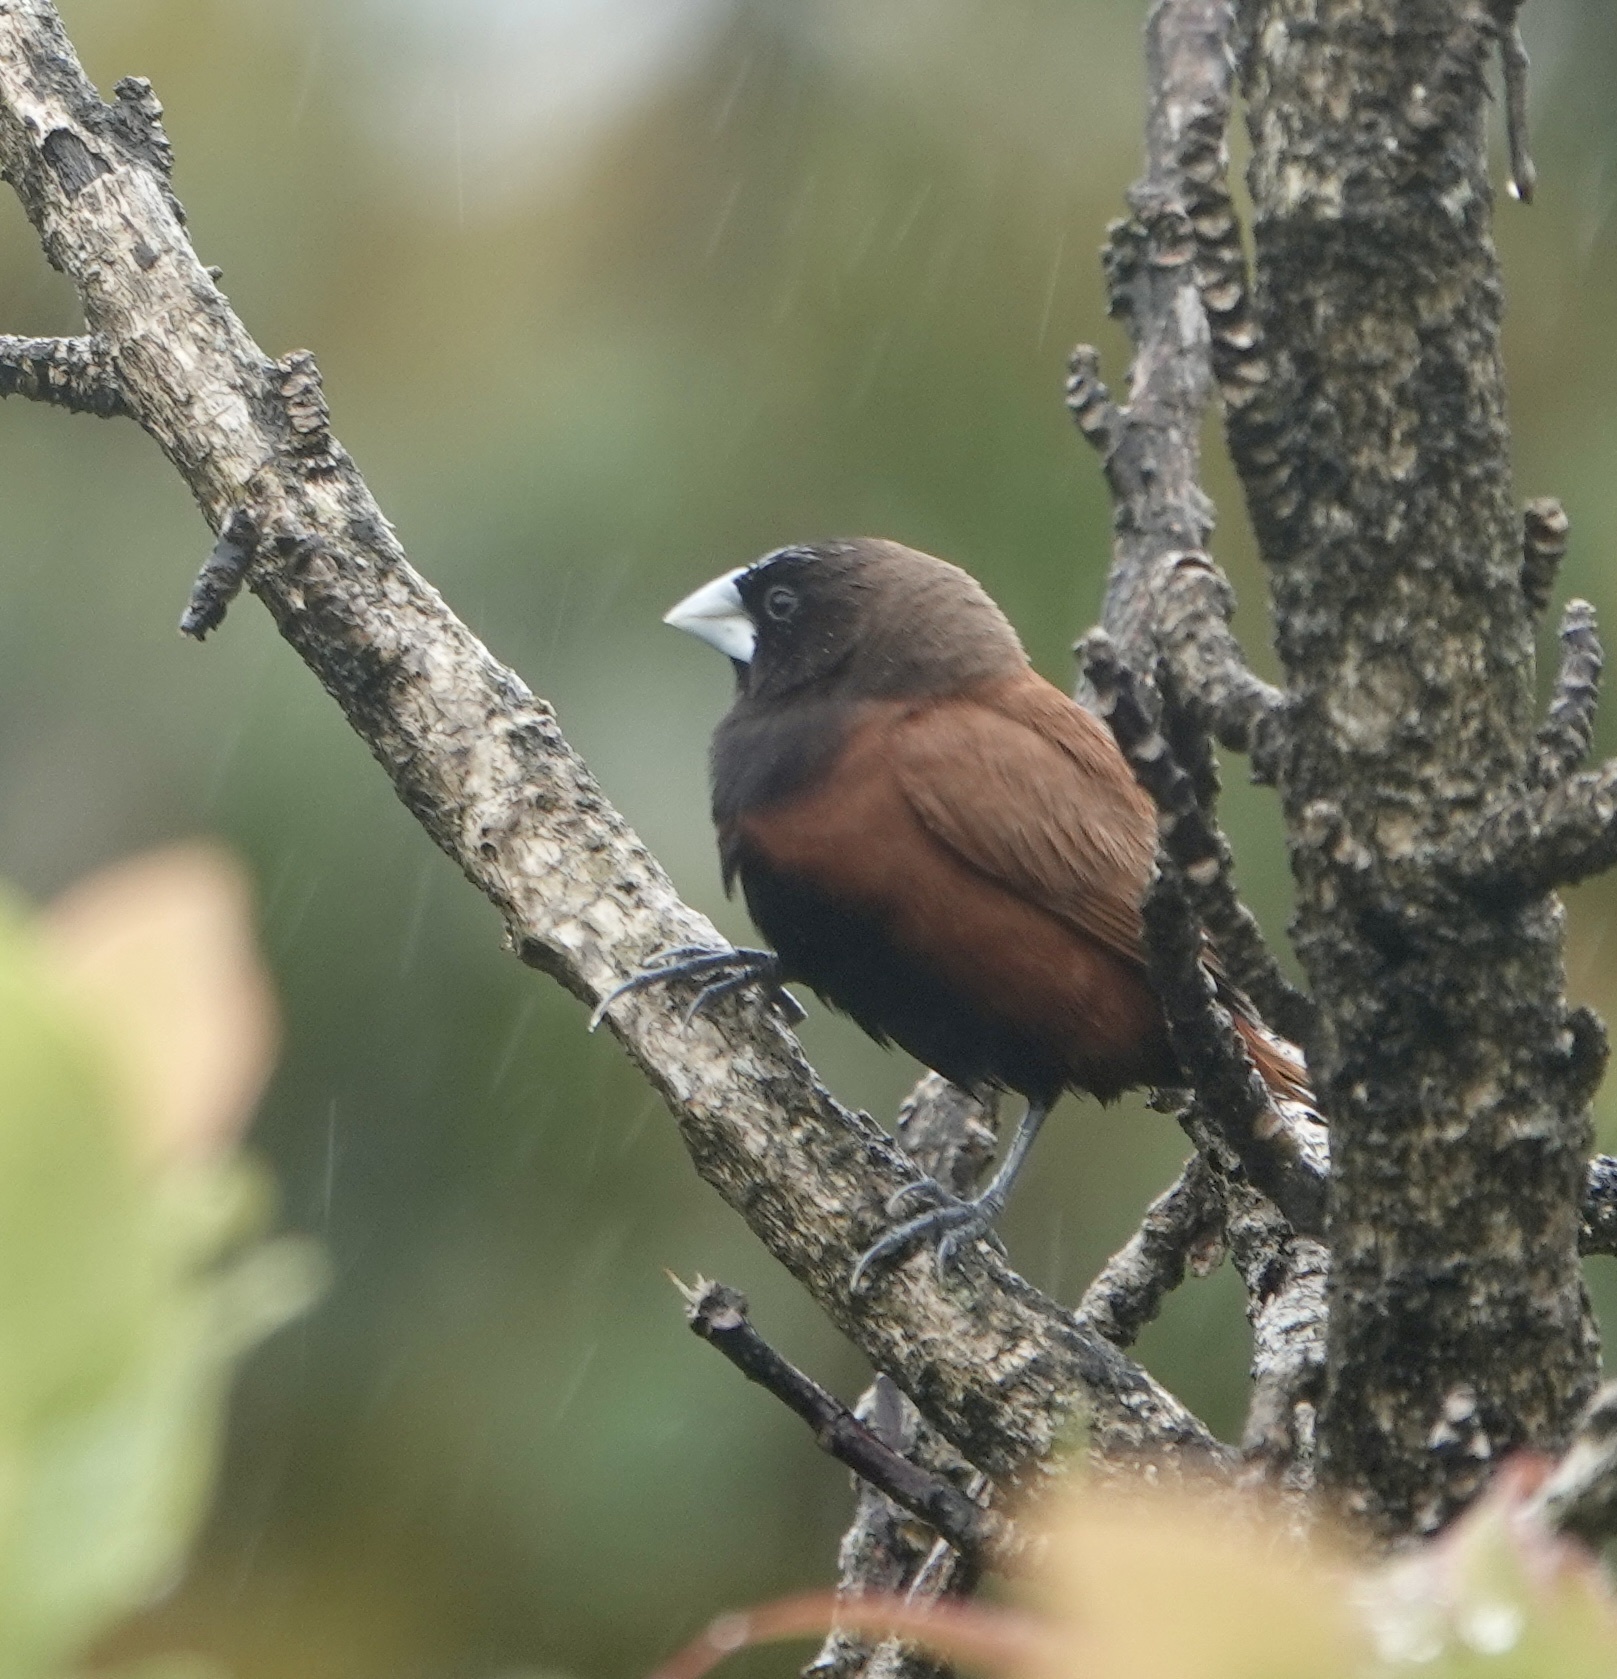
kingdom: Animalia
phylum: Chordata
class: Aves
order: Passeriformes
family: Estrildidae
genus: Lonchura
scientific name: Lonchura atricapilla
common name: Chestnut munia
